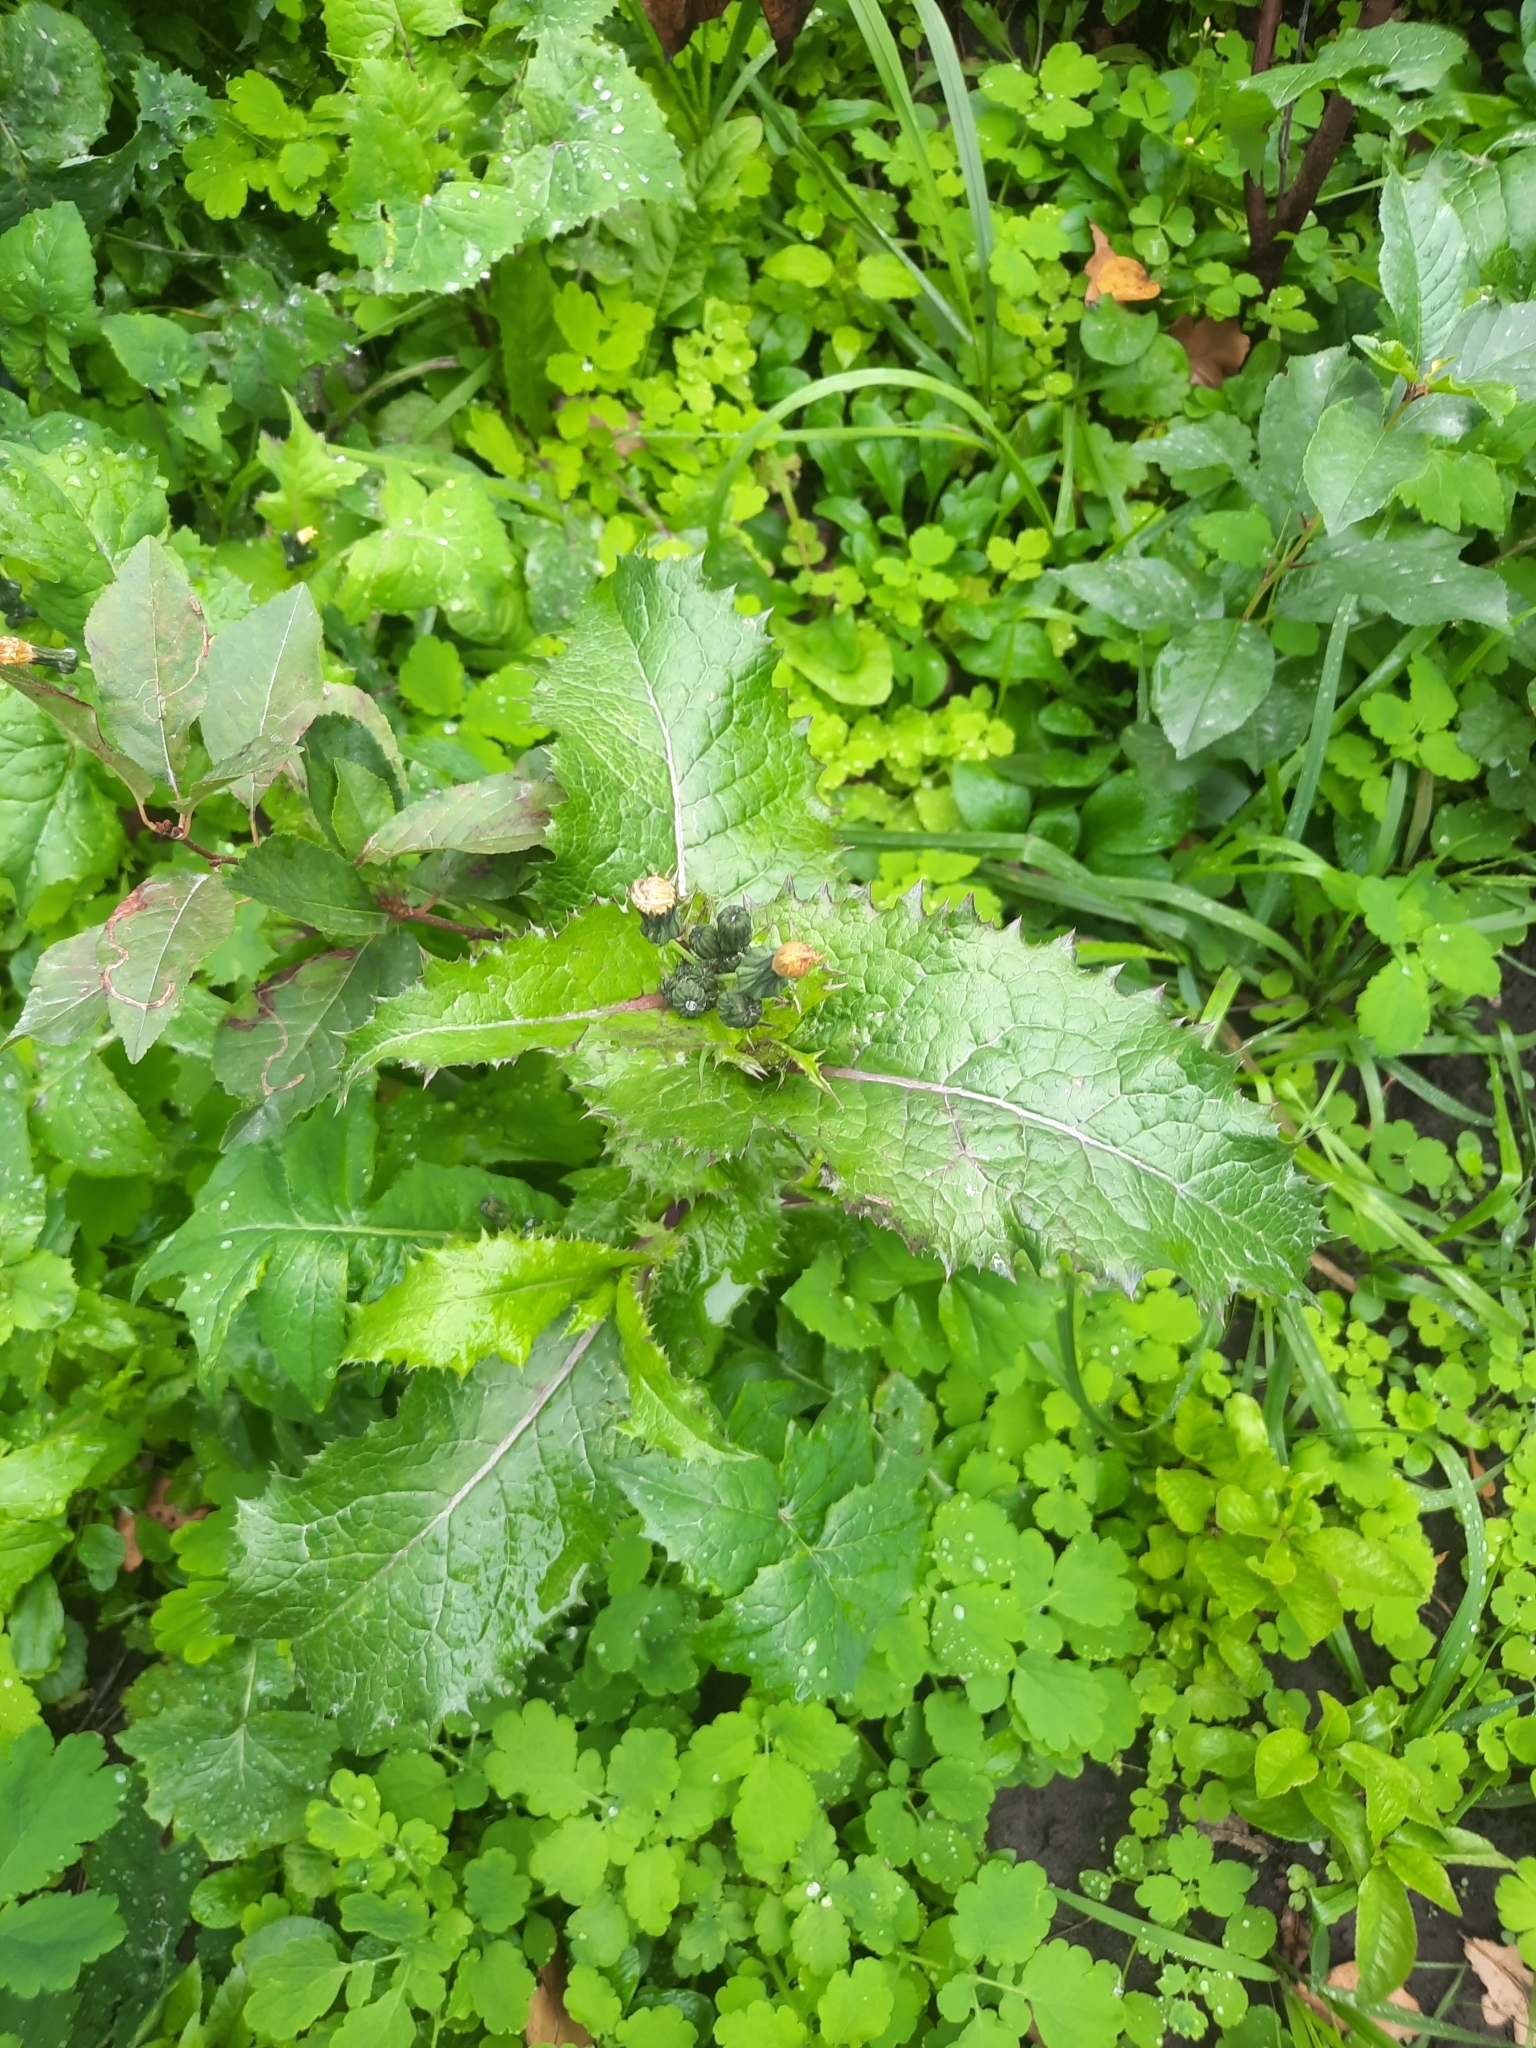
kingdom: Plantae
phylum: Tracheophyta
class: Magnoliopsida
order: Asterales
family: Asteraceae
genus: Sonchus
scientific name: Sonchus asper
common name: Prickly sow-thistle
